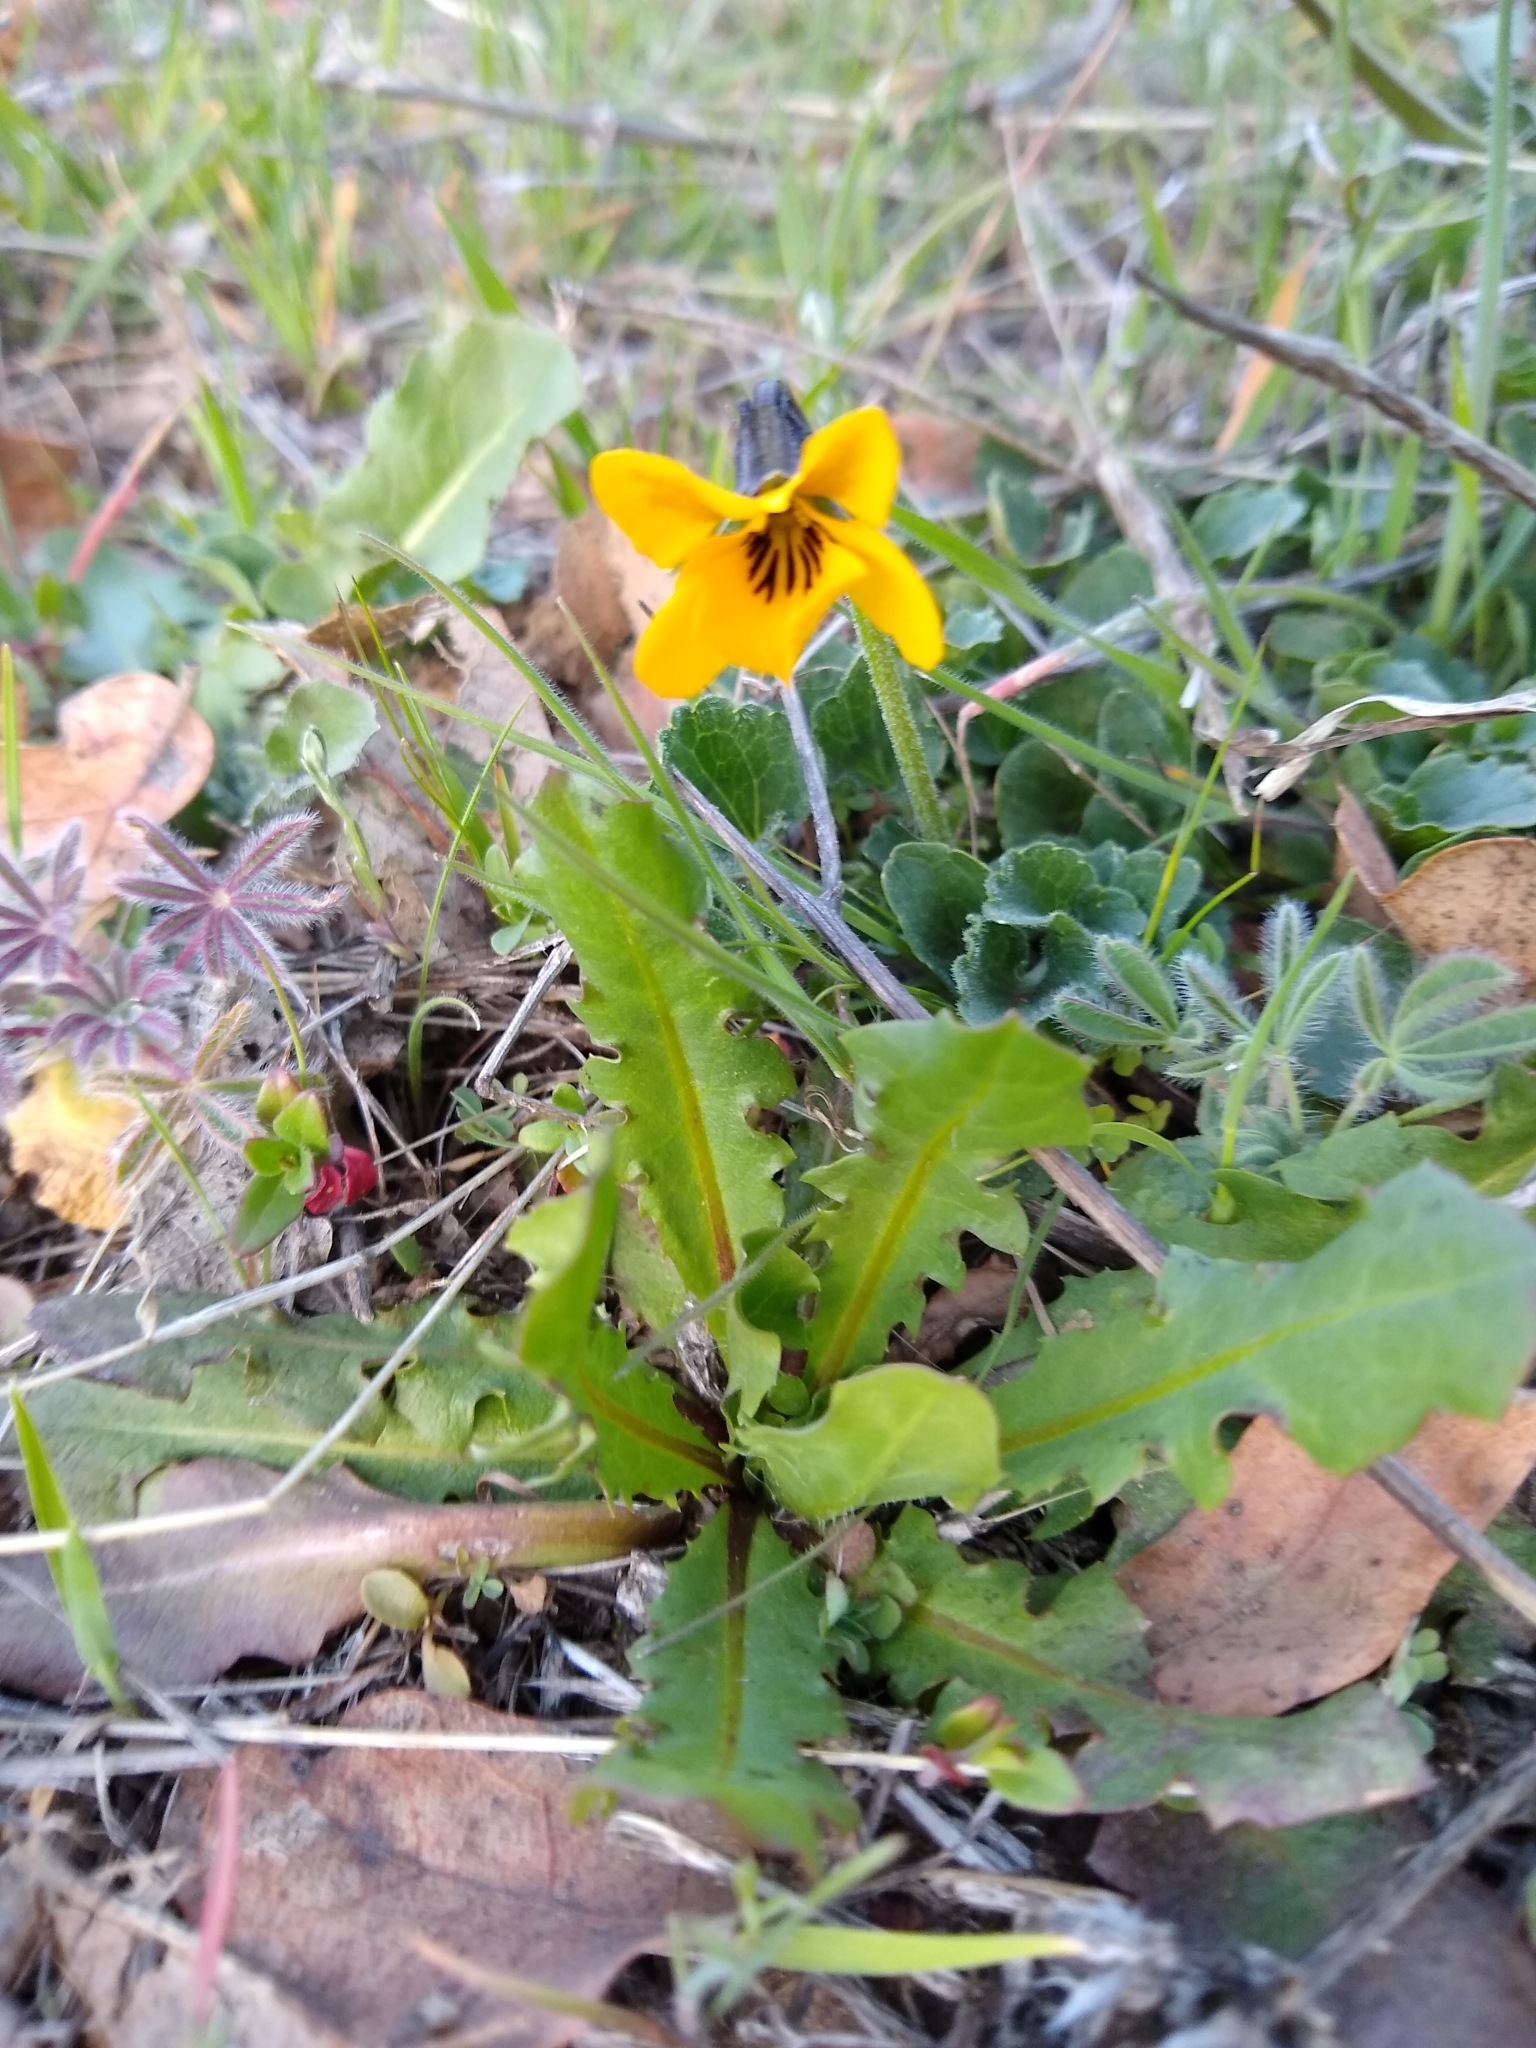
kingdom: Plantae
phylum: Tracheophyta
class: Magnoliopsida
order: Malpighiales
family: Violaceae
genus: Viola
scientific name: Viola pedunculata
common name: California golden violet
